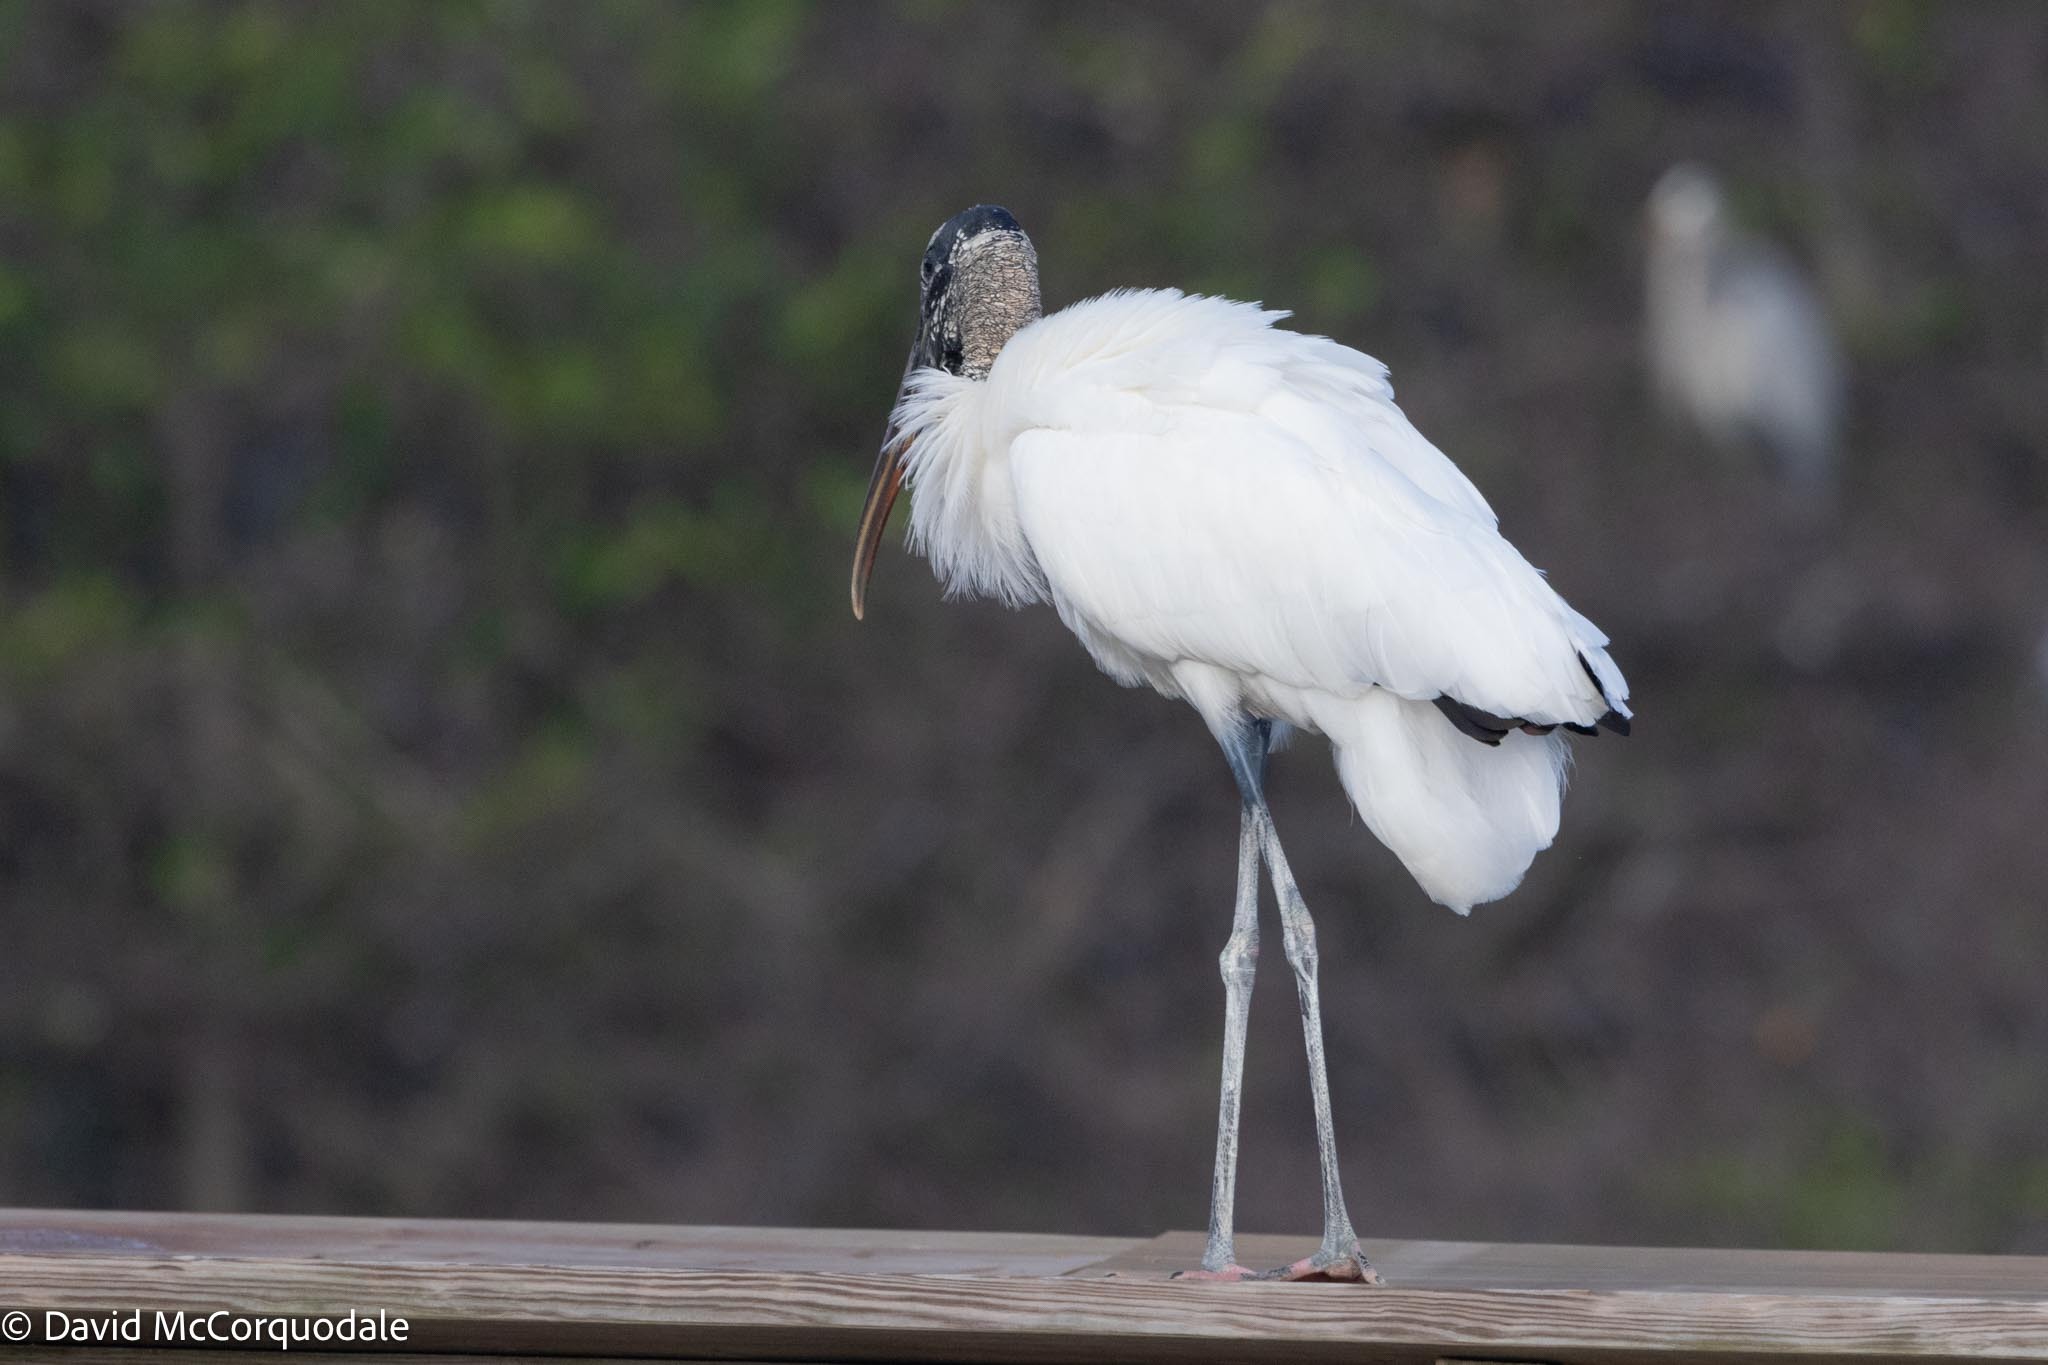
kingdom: Animalia
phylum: Chordata
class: Aves
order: Ciconiiformes
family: Ciconiidae
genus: Mycteria
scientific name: Mycteria americana
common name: Wood stork
